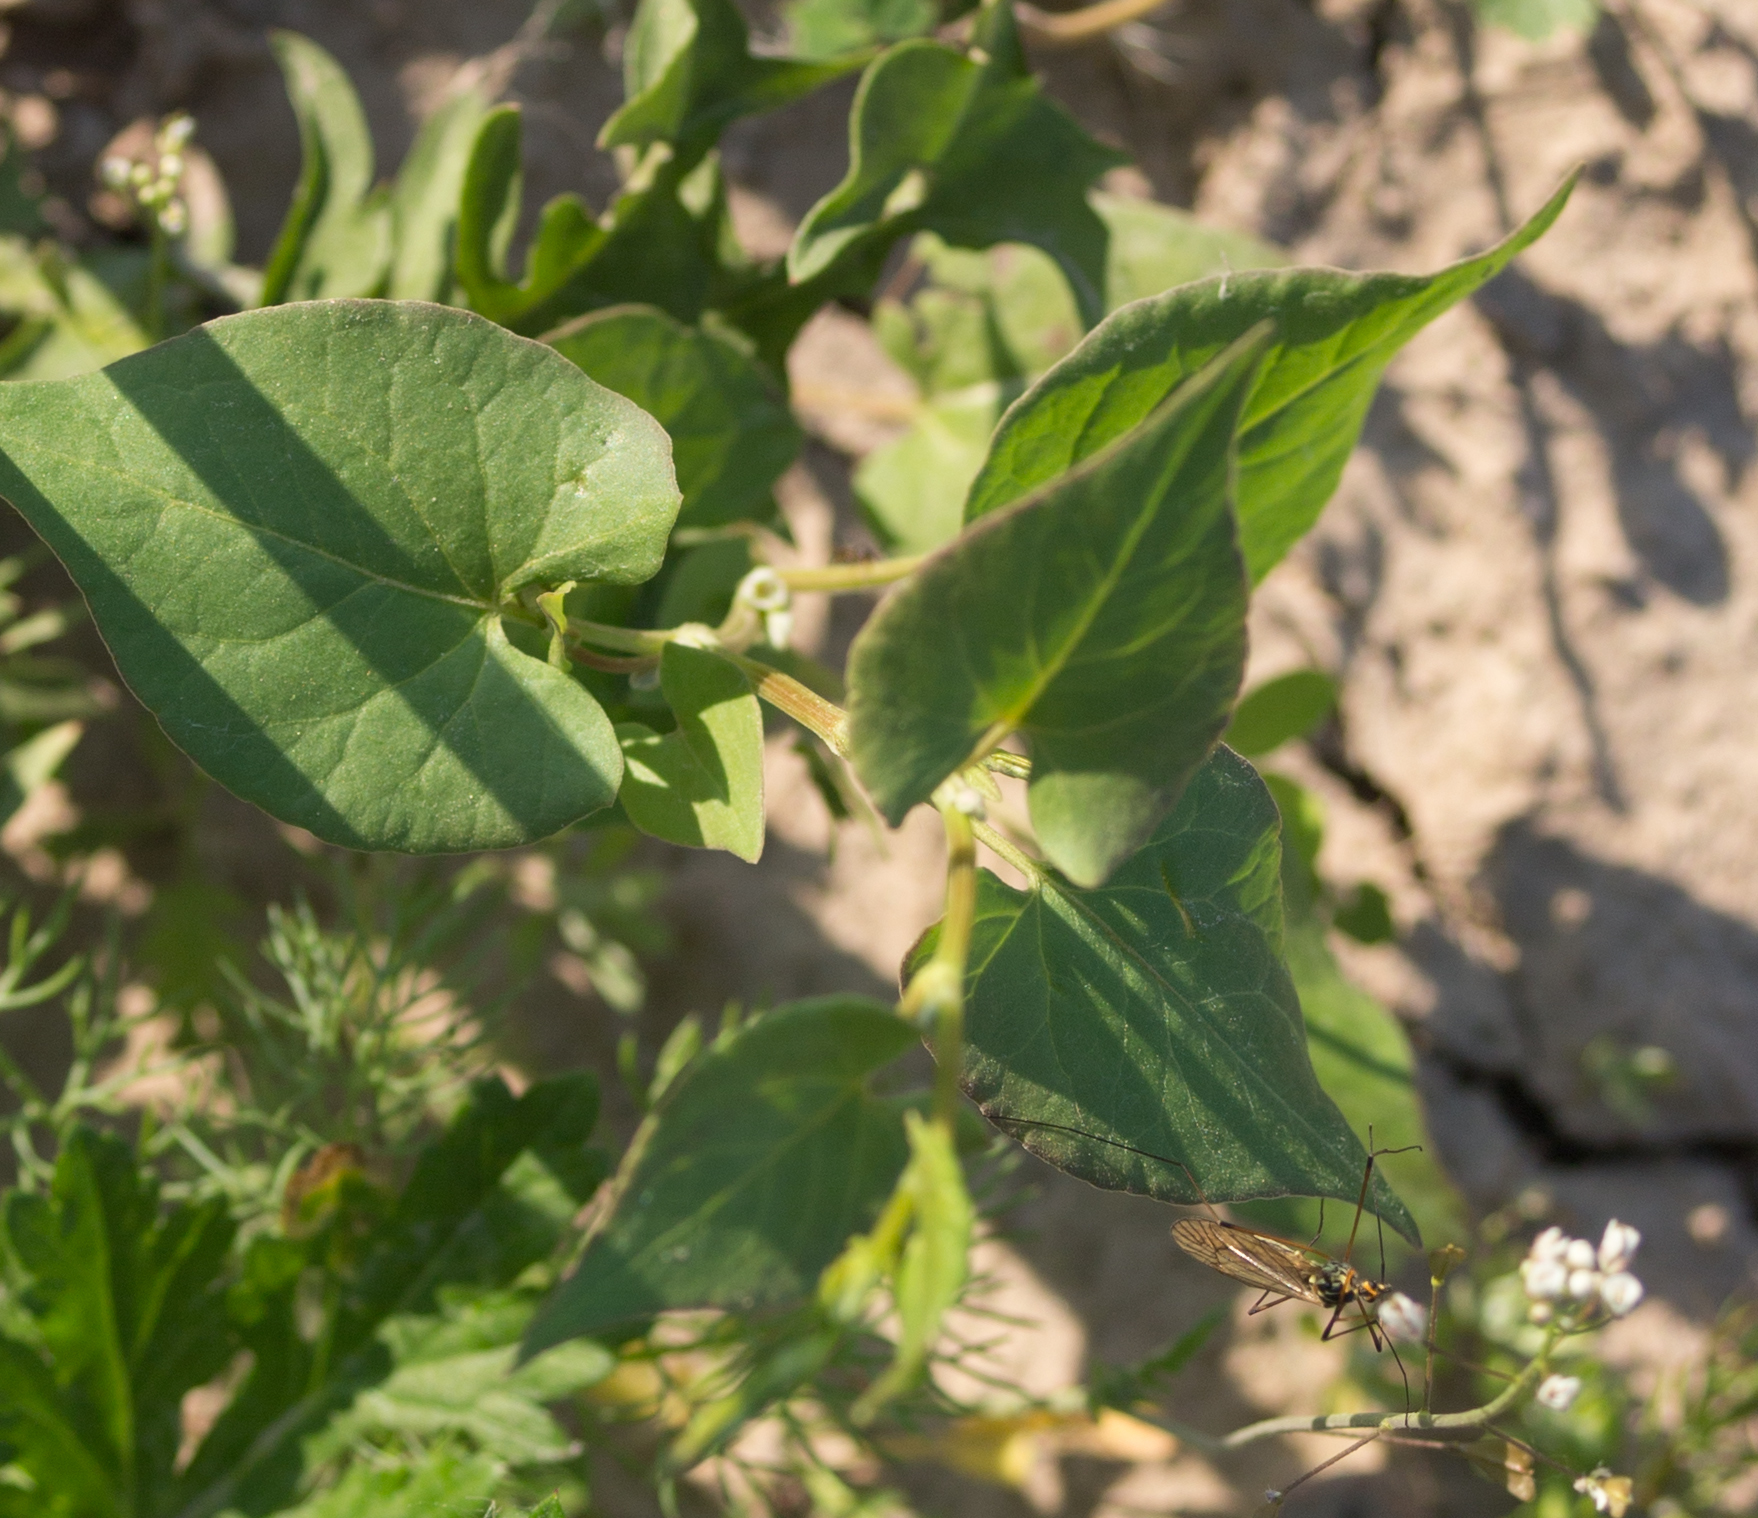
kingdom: Plantae
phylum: Tracheophyta
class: Magnoliopsida
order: Caryophyllales
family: Polygonaceae
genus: Fallopia
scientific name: Fallopia convolvulus
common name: Black bindweed
